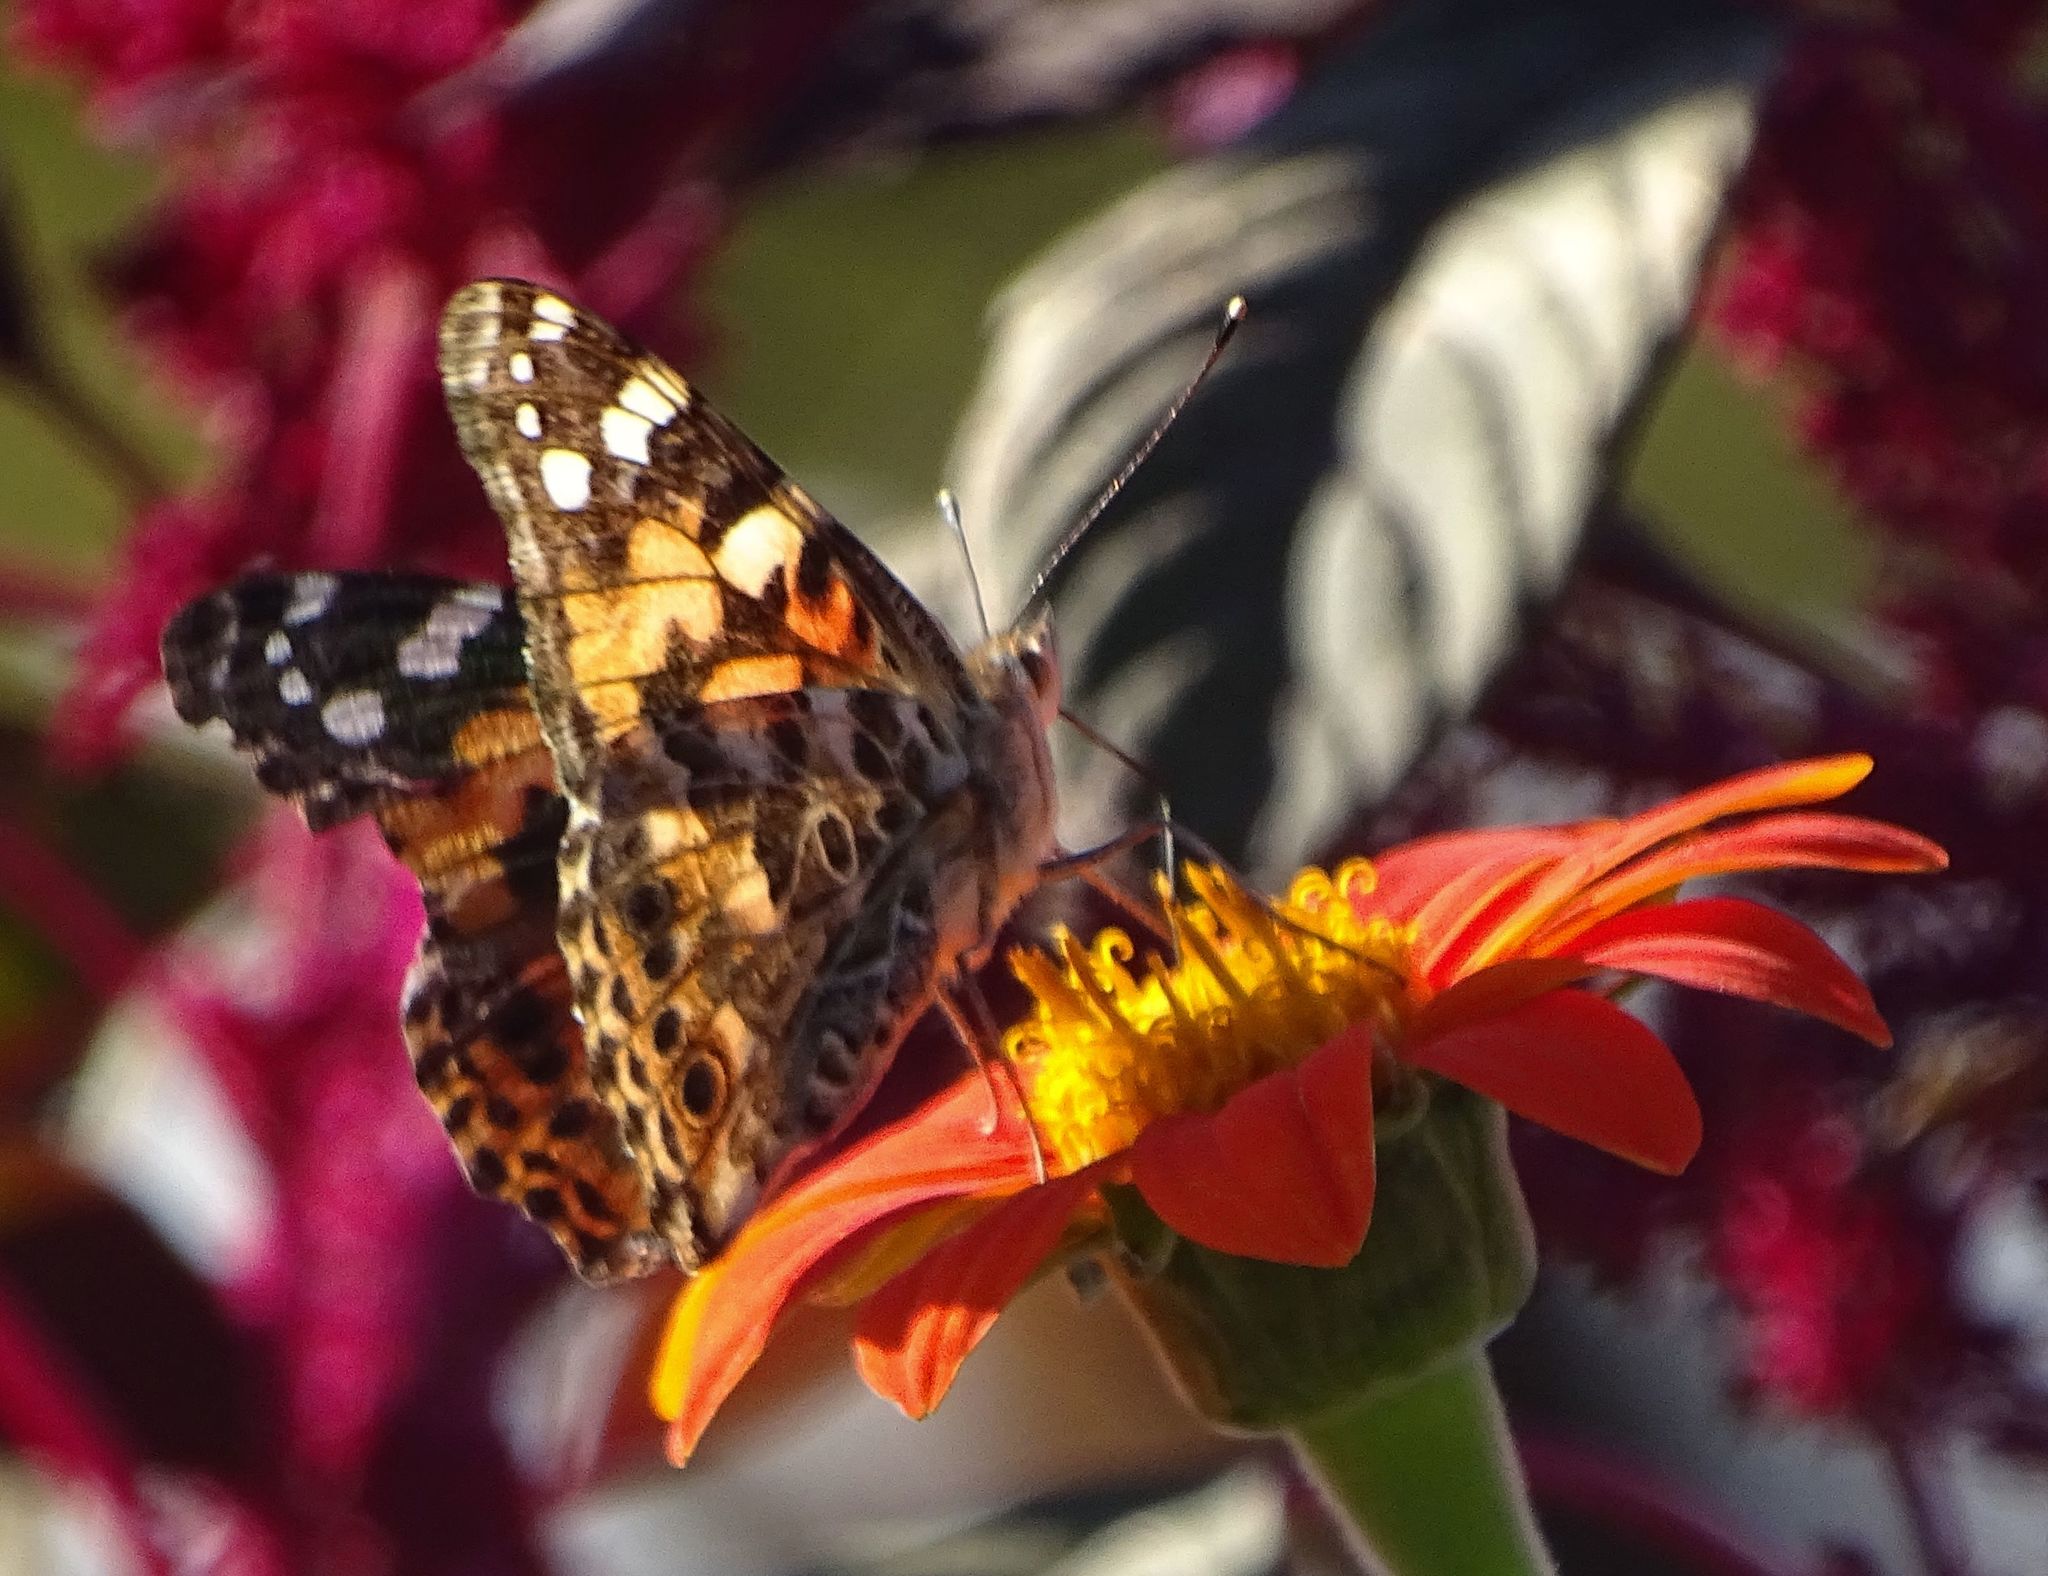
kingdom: Animalia
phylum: Arthropoda
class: Insecta
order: Lepidoptera
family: Nymphalidae
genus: Vanessa
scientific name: Vanessa cardui
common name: Painted lady
